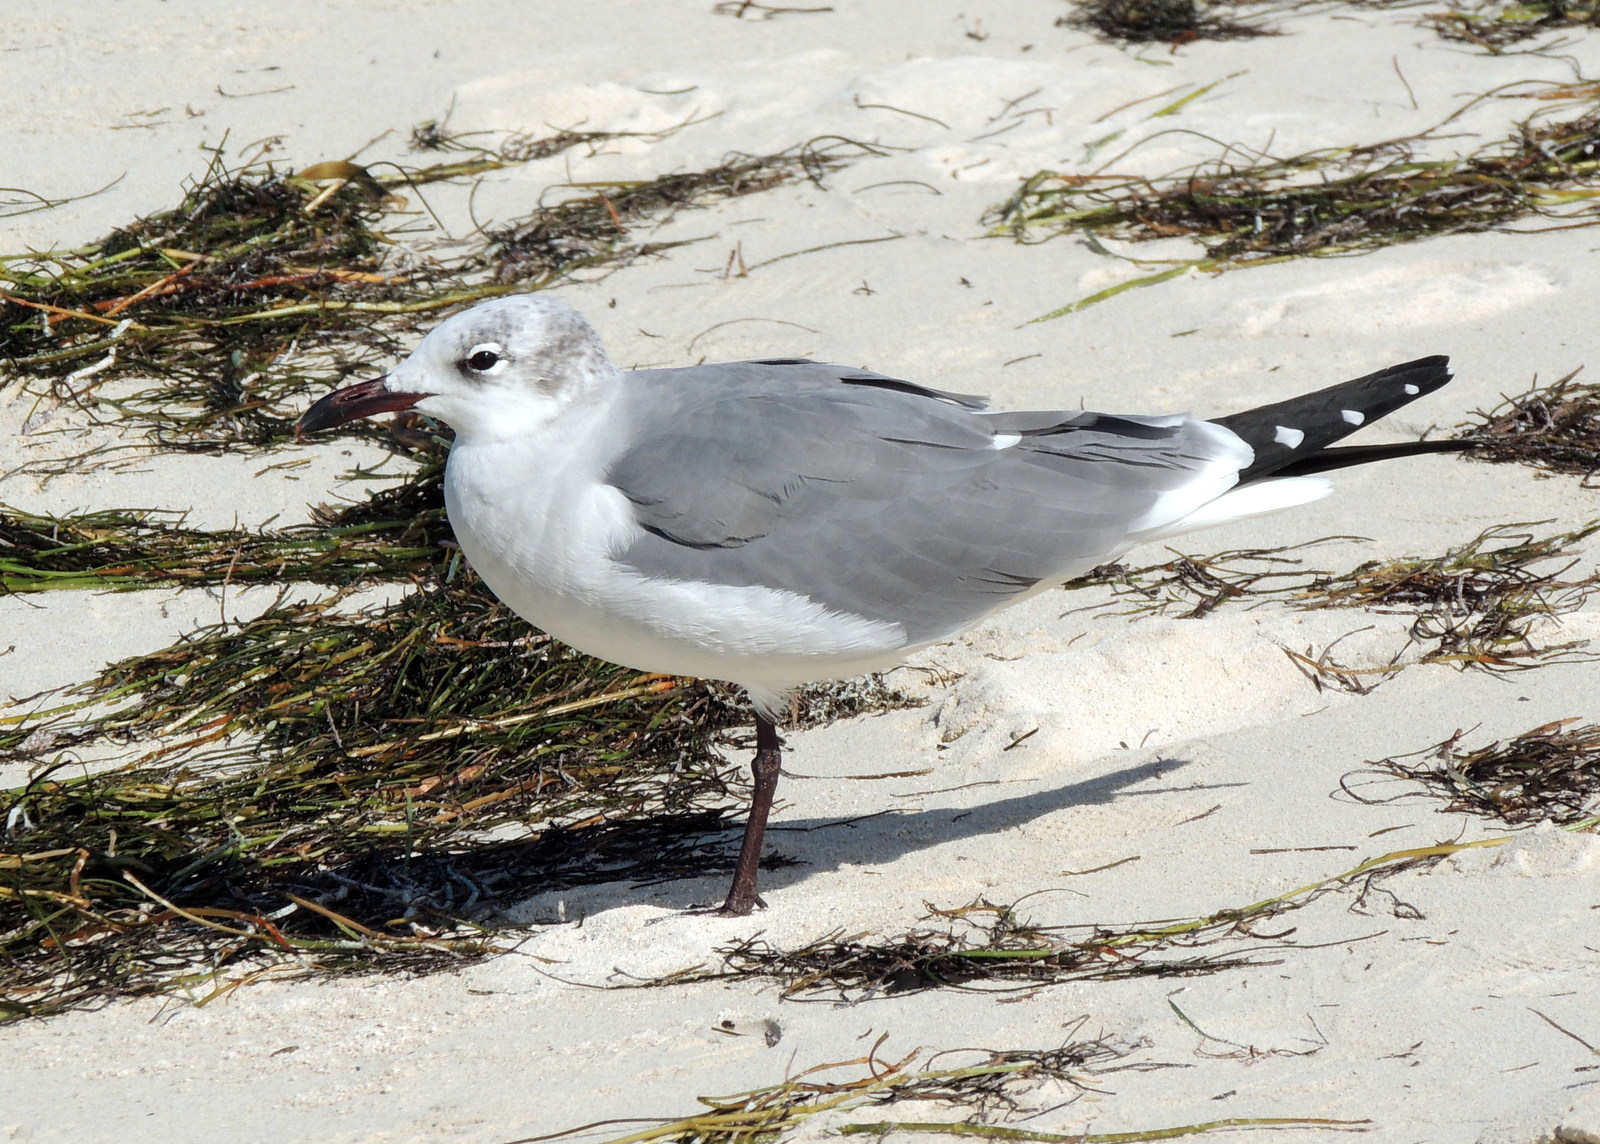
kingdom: Animalia
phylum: Chordata
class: Aves
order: Charadriiformes
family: Laridae
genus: Leucophaeus
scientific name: Leucophaeus atricilla
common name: Laughing gull
